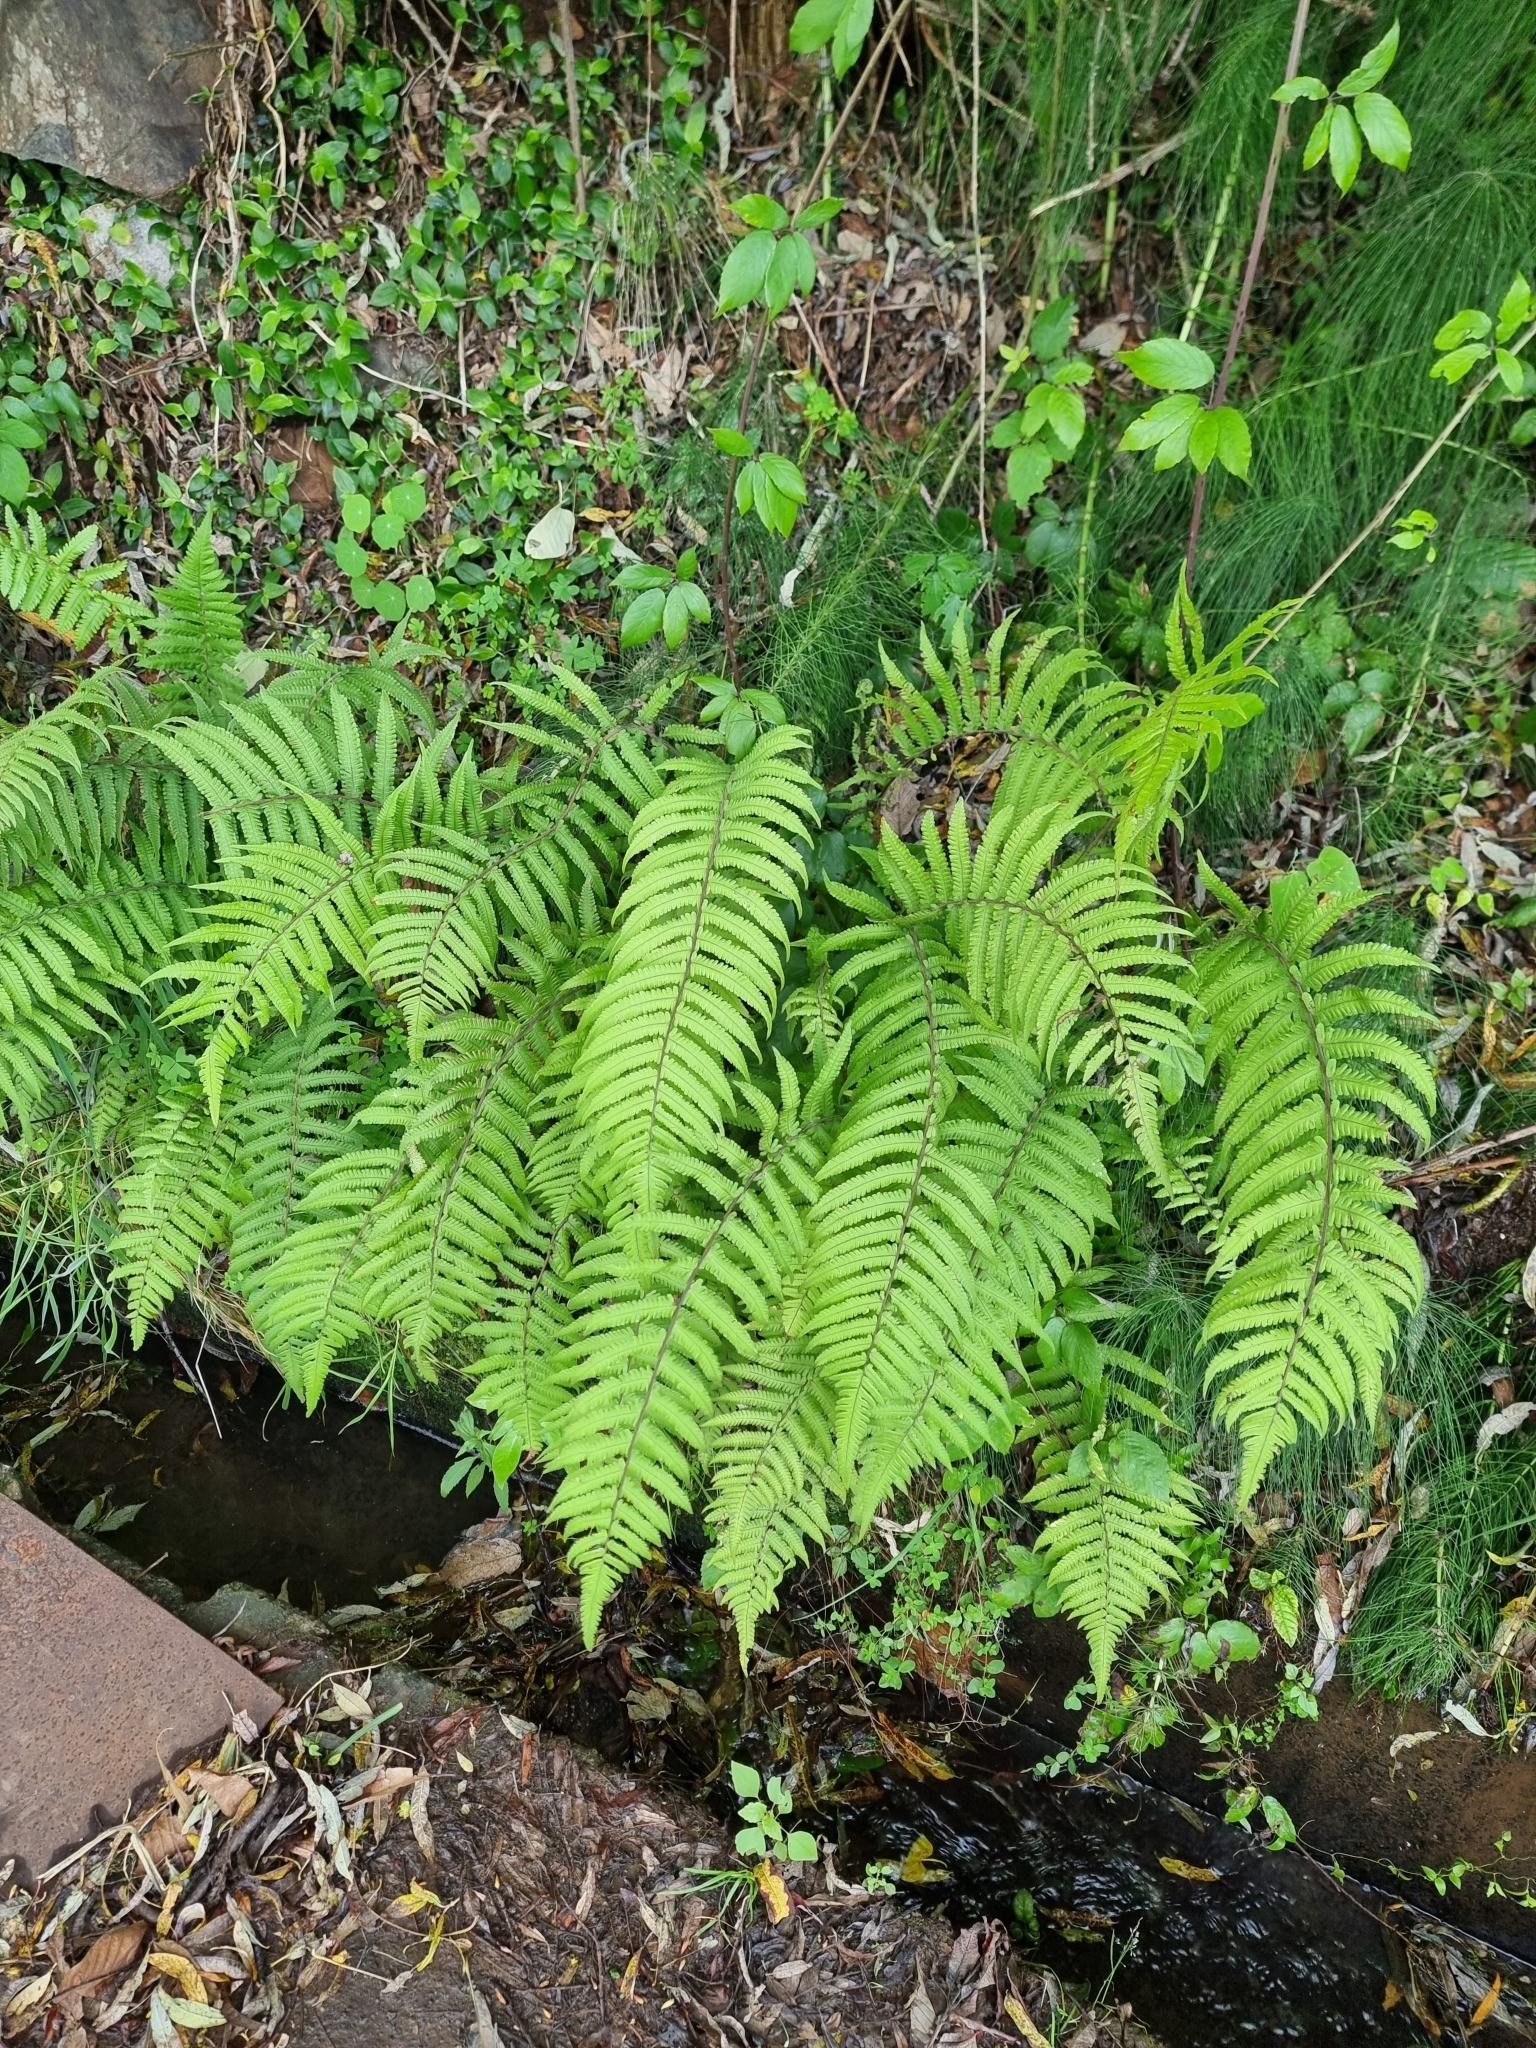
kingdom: Plantae
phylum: Tracheophyta
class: Polypodiopsida
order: Polypodiales
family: Thelypteridaceae
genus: Christella
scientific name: Christella dentata
